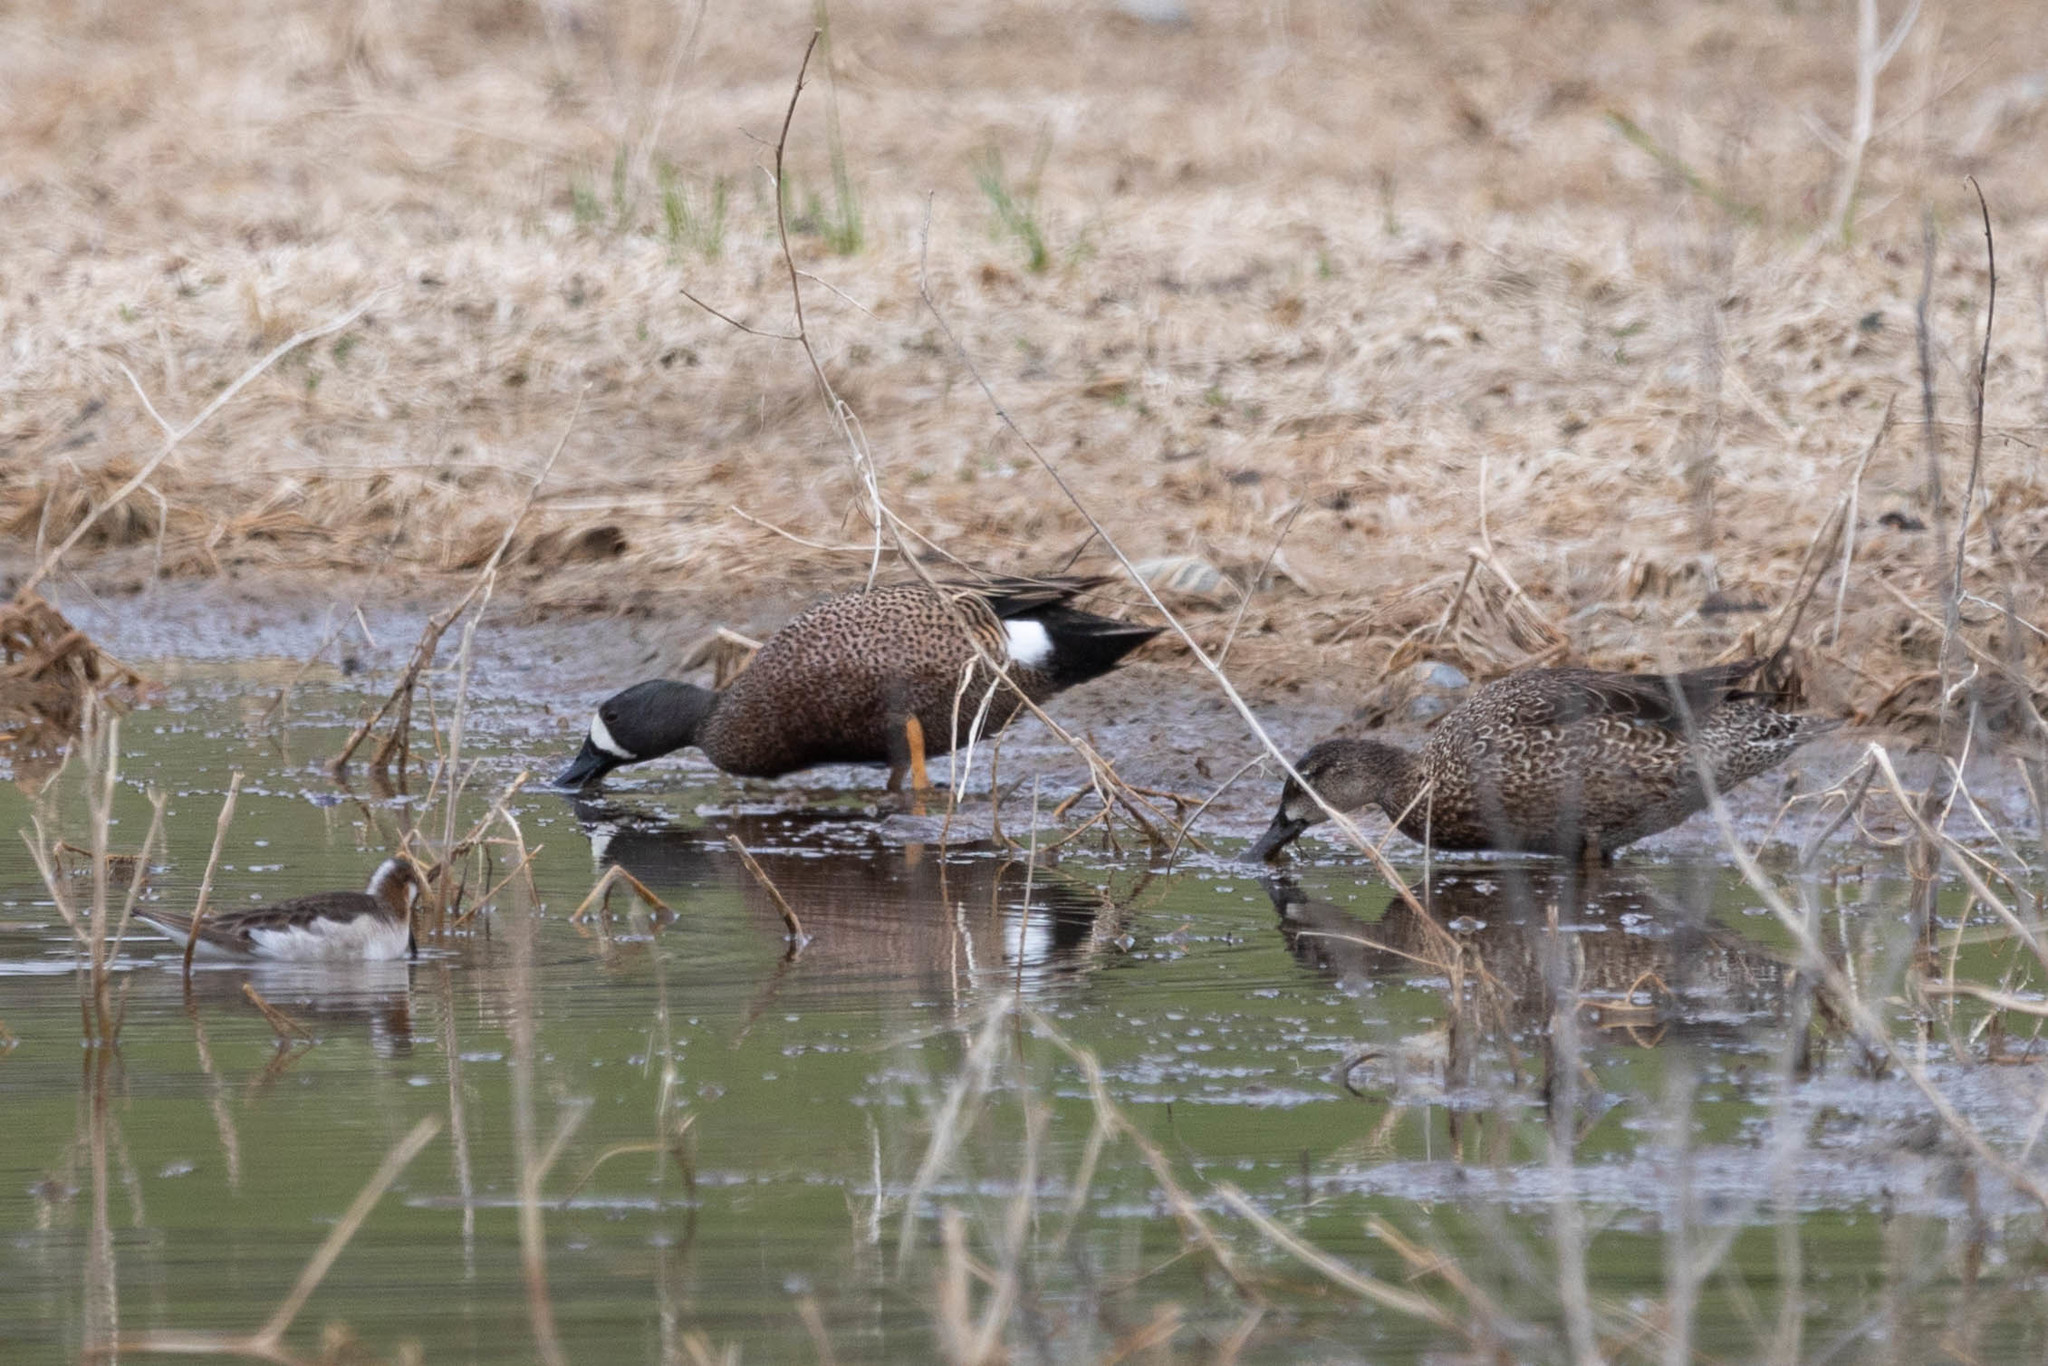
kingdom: Animalia
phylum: Chordata
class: Aves
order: Anseriformes
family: Anatidae
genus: Spatula
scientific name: Spatula discors
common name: Blue-winged teal
